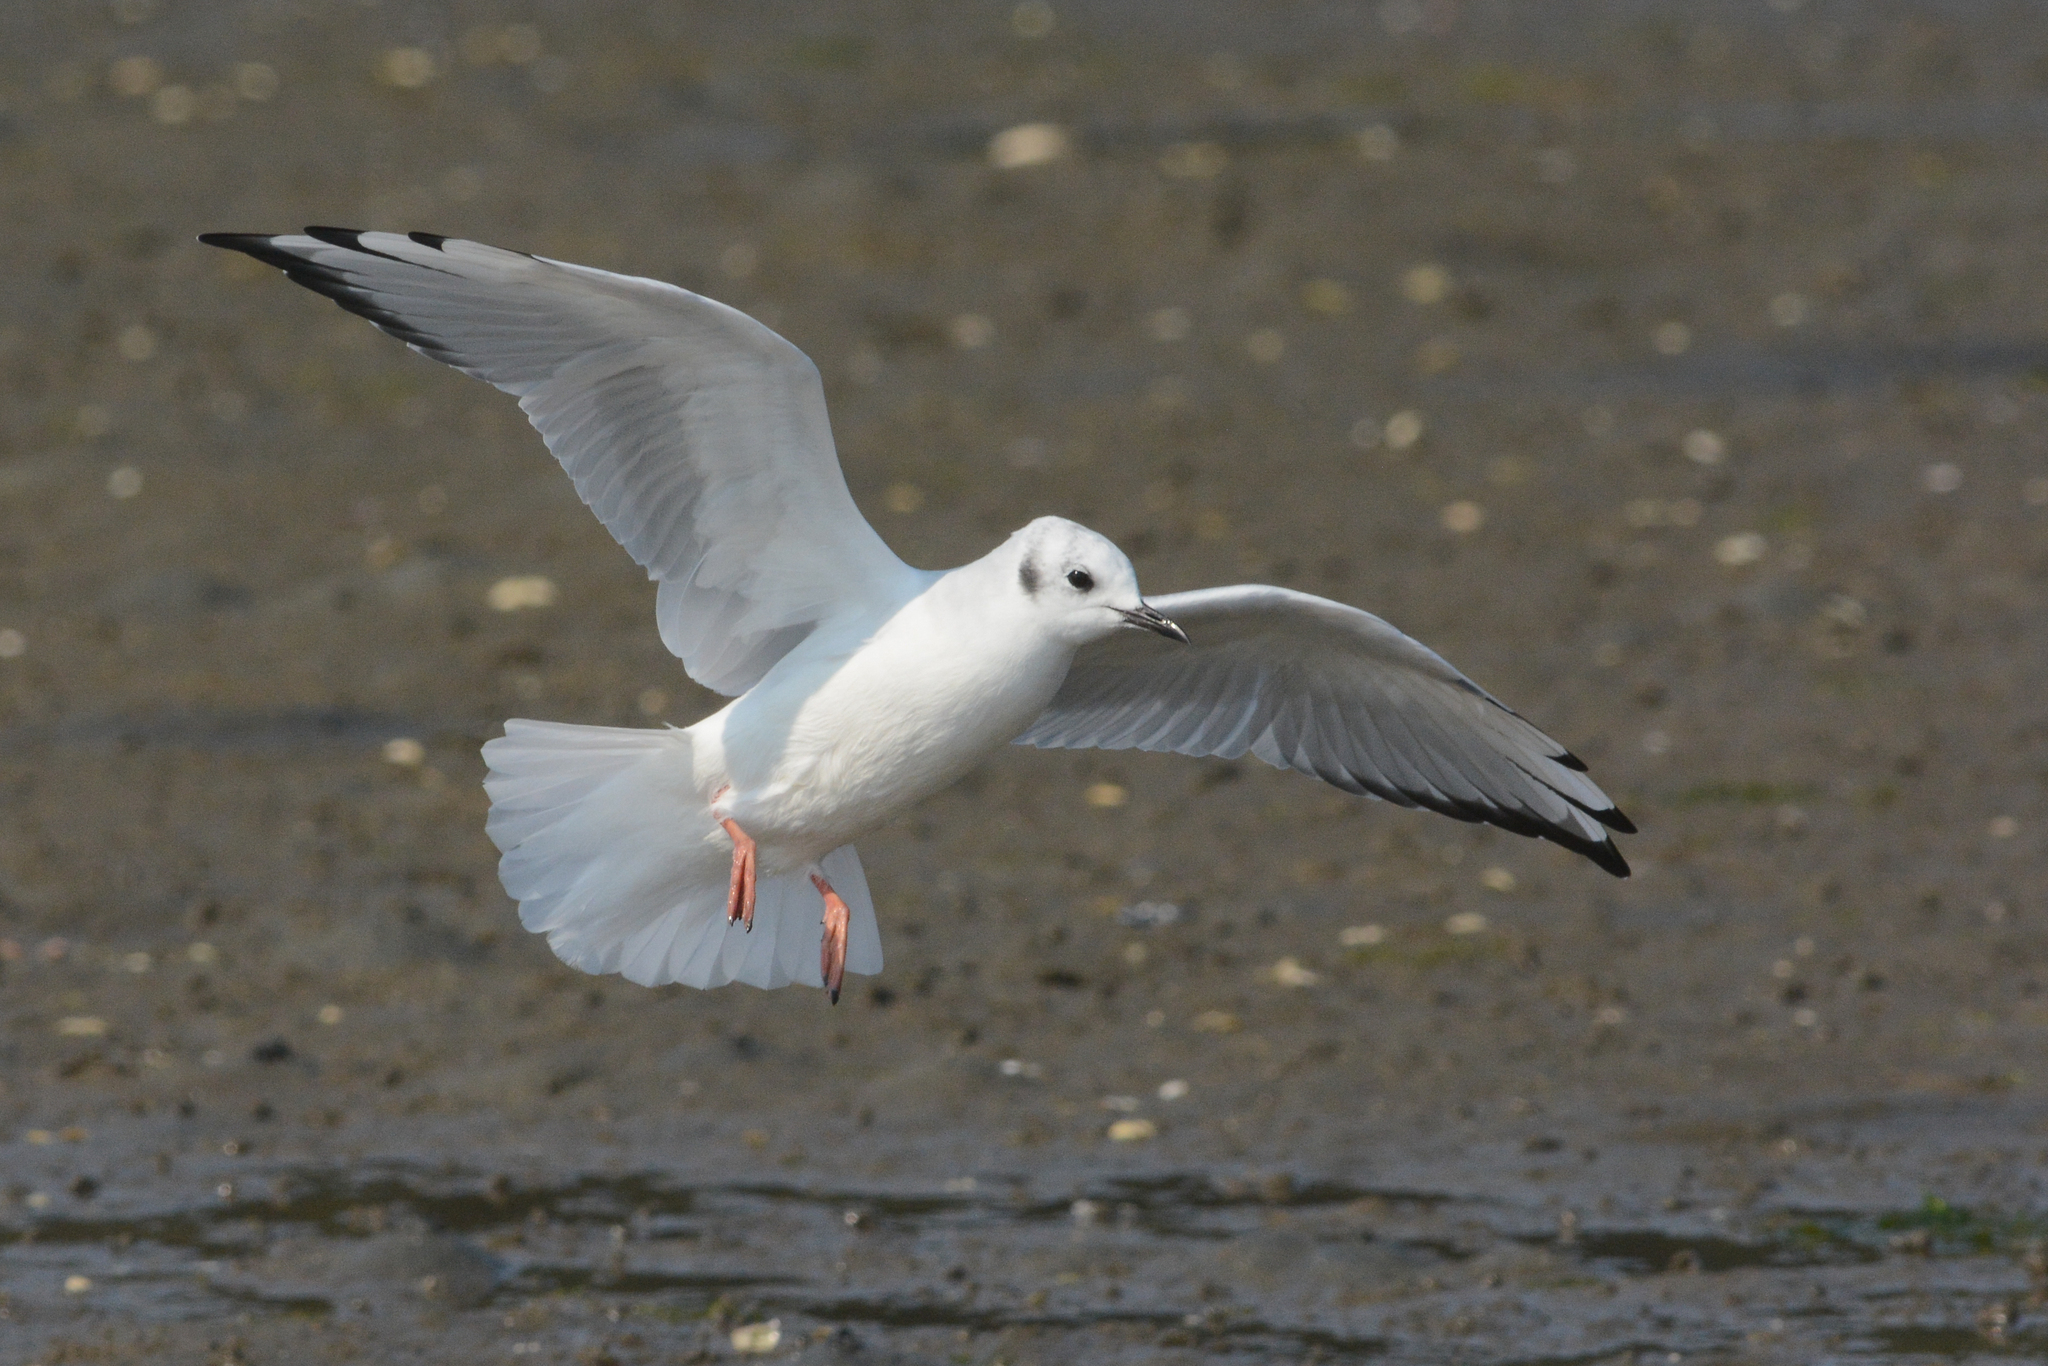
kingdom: Animalia
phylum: Chordata
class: Aves
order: Charadriiformes
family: Laridae
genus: Chroicocephalus
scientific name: Chroicocephalus philadelphia
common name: Bonaparte's gull
